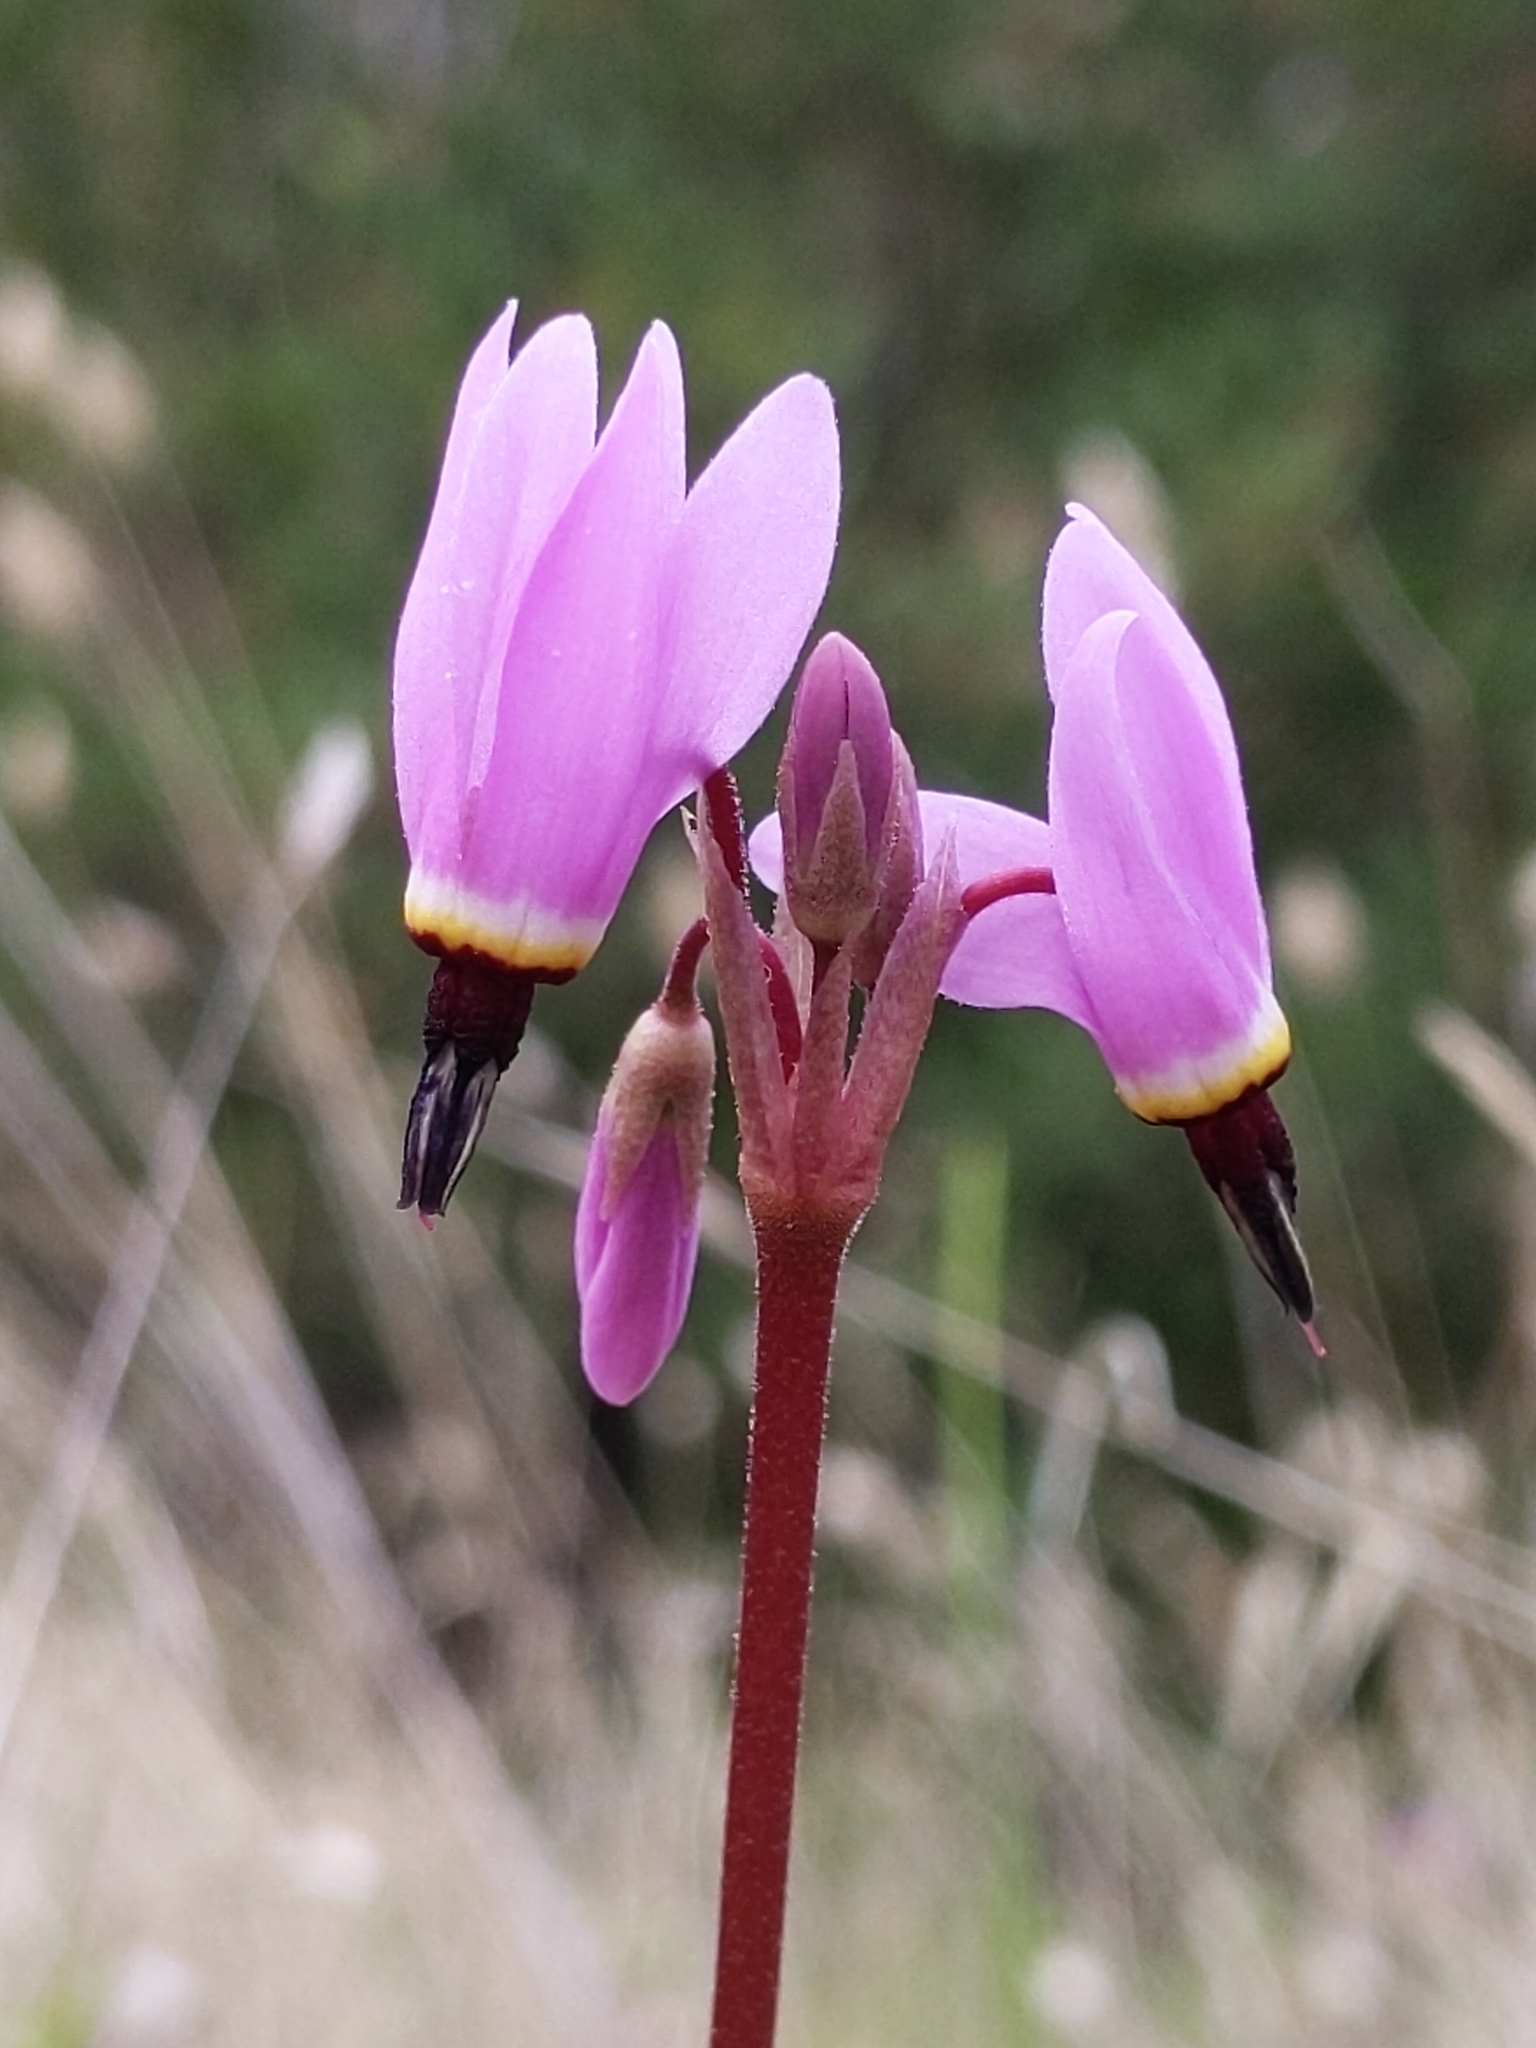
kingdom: Plantae
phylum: Tracheophyta
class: Magnoliopsida
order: Ericales
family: Primulaceae
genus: Dodecatheon
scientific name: Dodecatheon hendersonii
